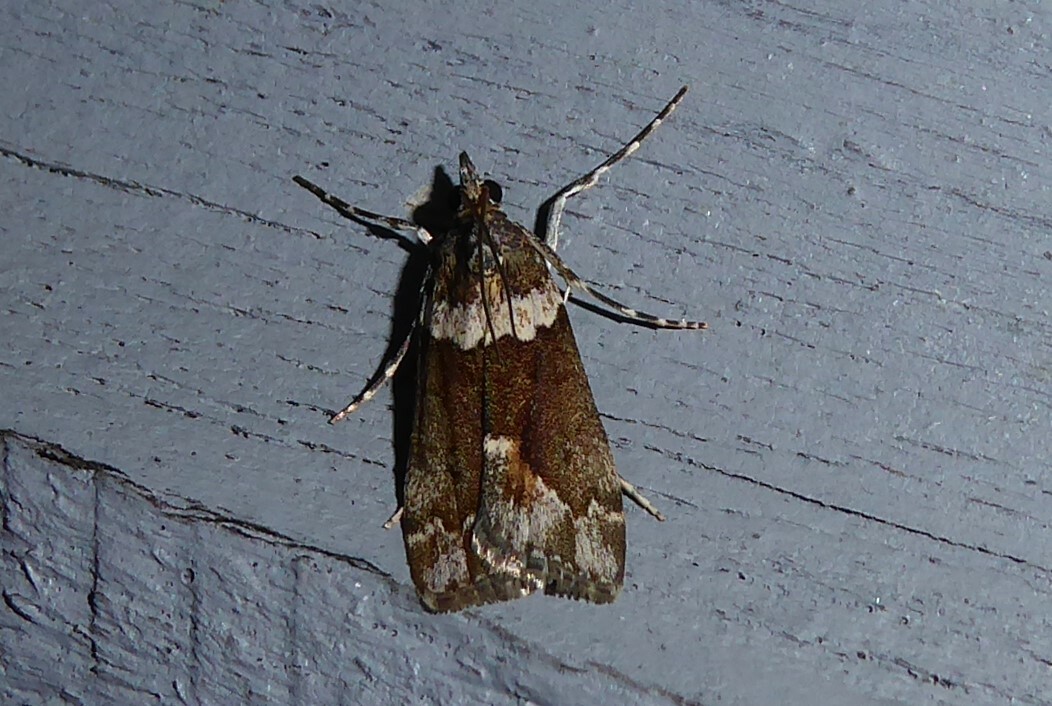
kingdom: Animalia
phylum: Arthropoda
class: Insecta
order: Lepidoptera
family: Crambidae
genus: Eudonia
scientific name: Eudonia submarginalis
